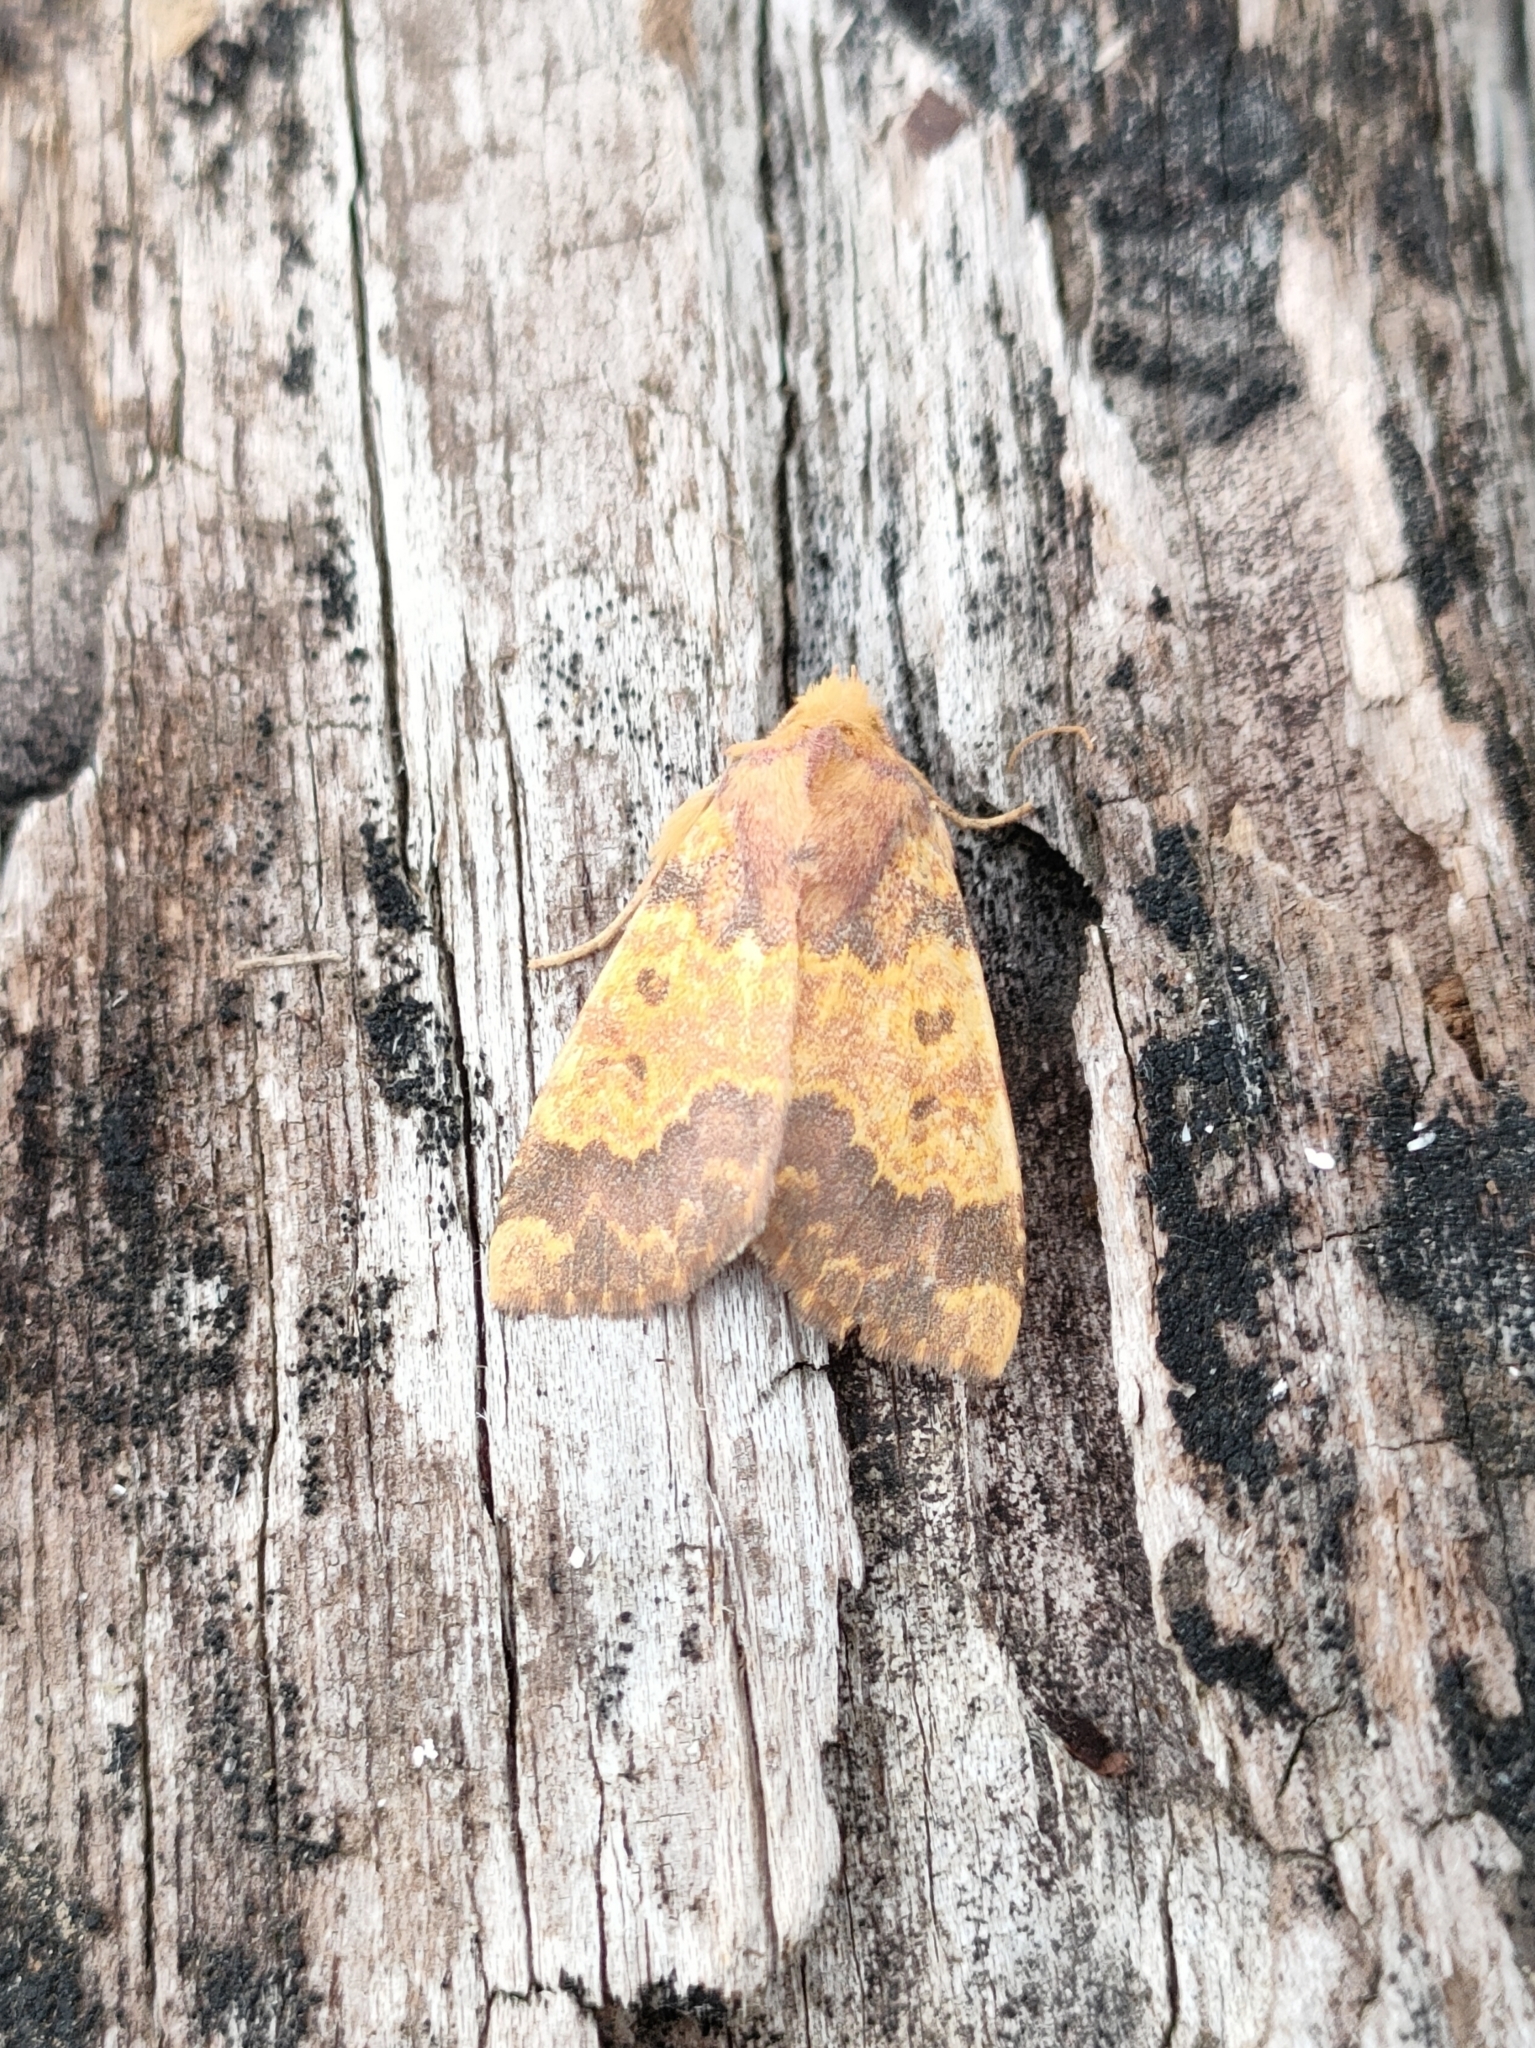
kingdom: Animalia
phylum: Arthropoda
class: Insecta
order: Lepidoptera
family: Noctuidae
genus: Tiliacea
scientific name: Tiliacea aurago
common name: Barred sallow
